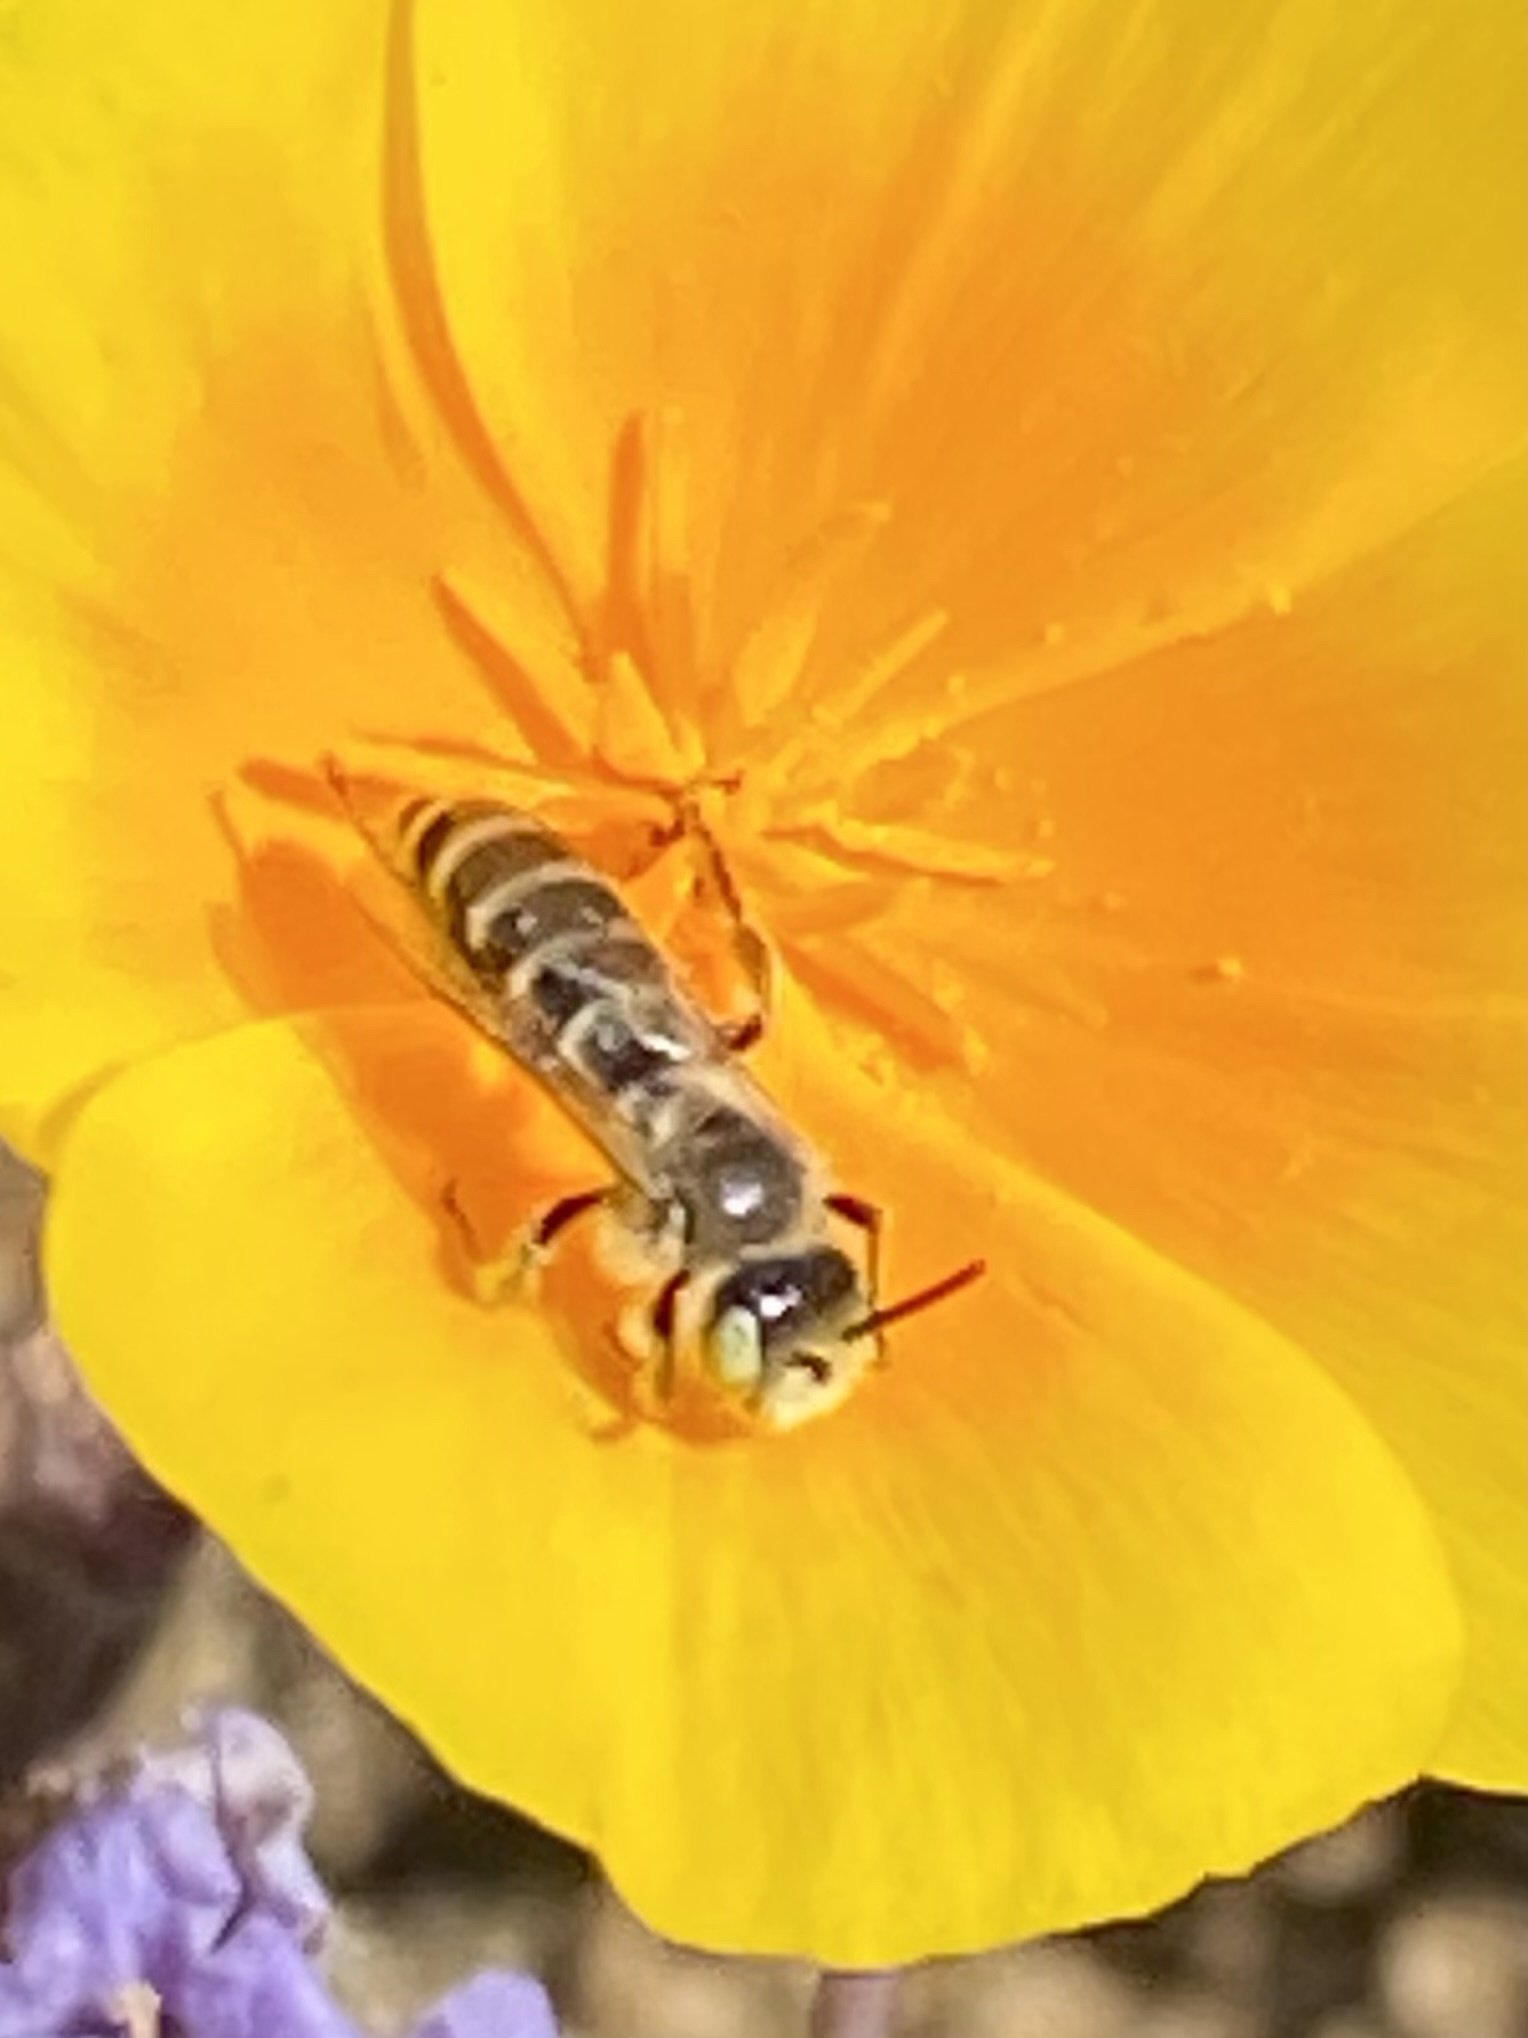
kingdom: Animalia
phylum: Arthropoda
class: Insecta
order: Hymenoptera
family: Andrenidae
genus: Perdita
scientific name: Perdita interrupta
